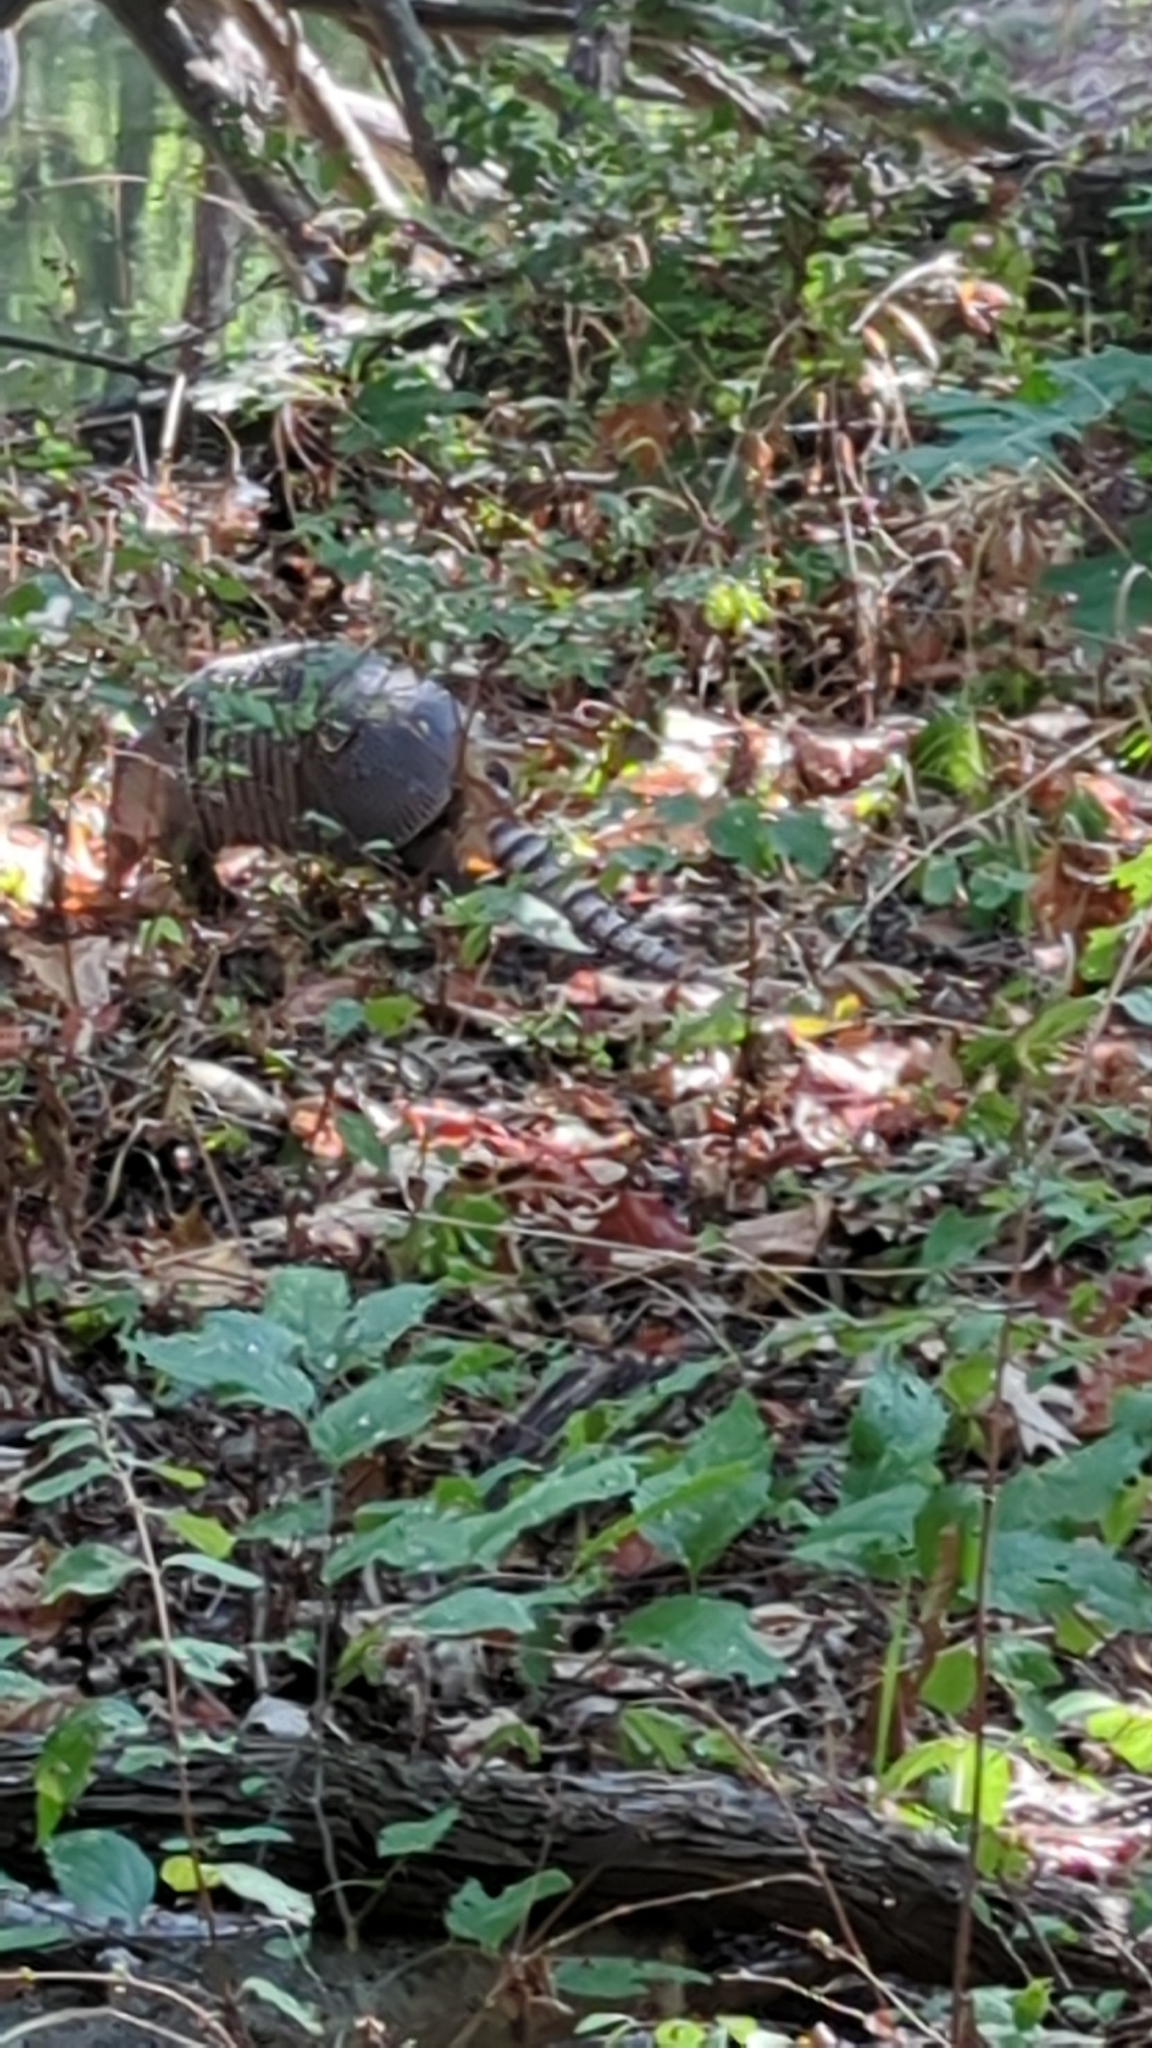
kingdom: Animalia
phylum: Chordata
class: Mammalia
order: Cingulata
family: Dasypodidae
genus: Dasypus
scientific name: Dasypus novemcinctus
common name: Nine-banded armadillo
